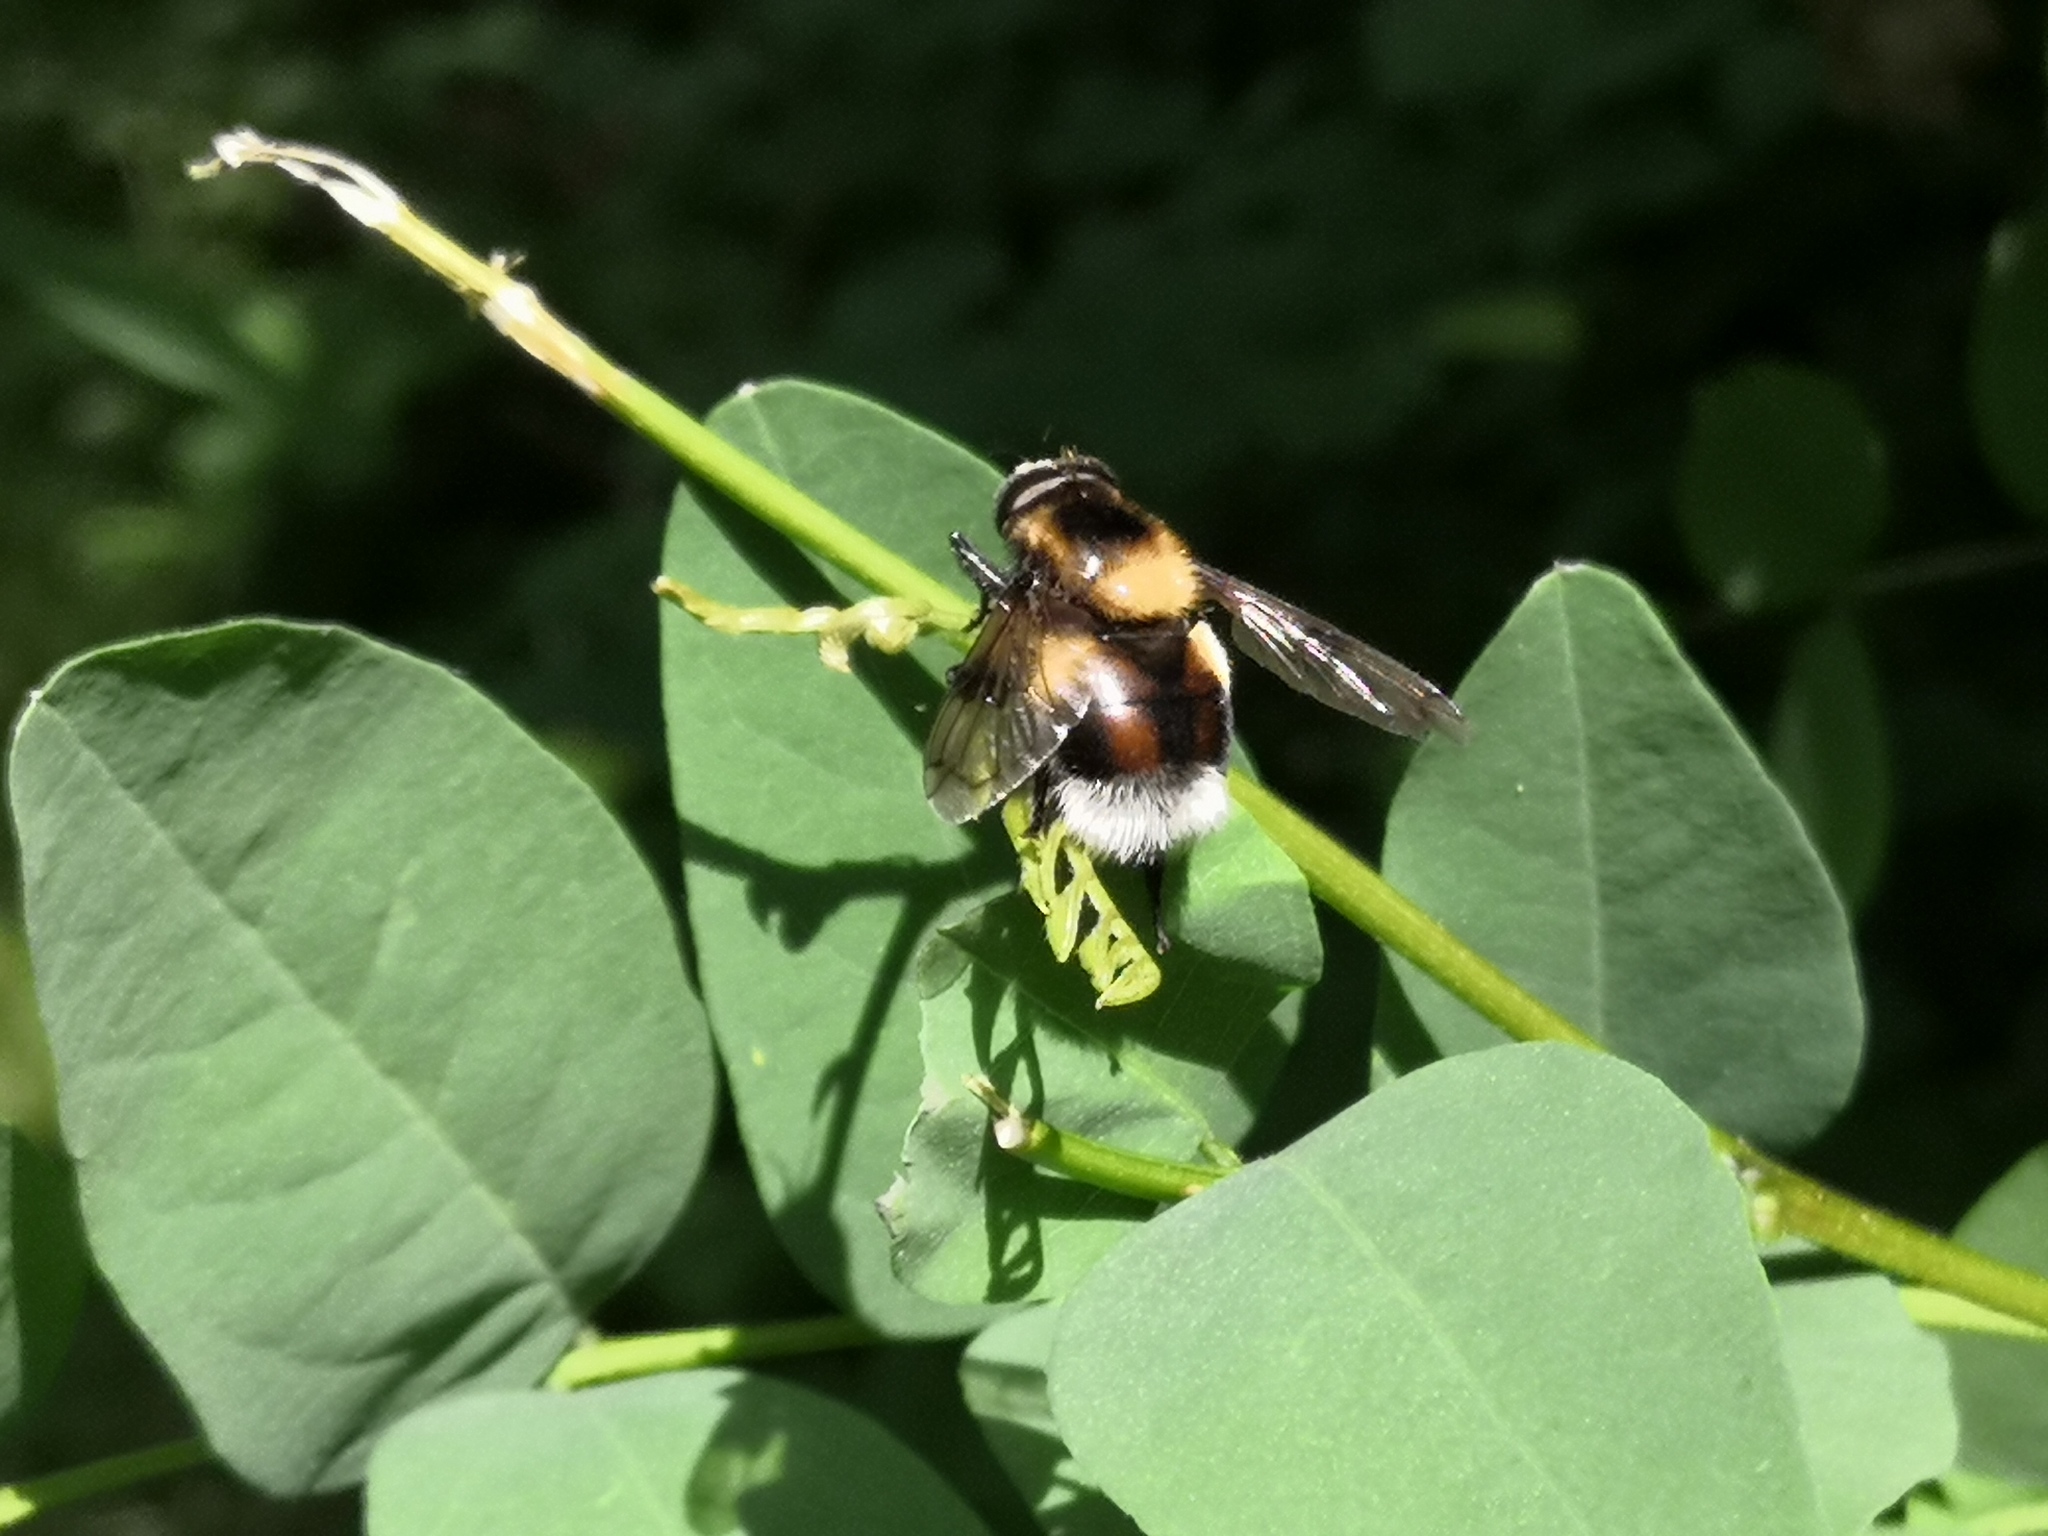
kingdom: Animalia
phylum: Arthropoda
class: Insecta
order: Diptera
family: Syrphidae
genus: Volucella
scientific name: Volucella bombylans
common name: Bumble bee hover fly
